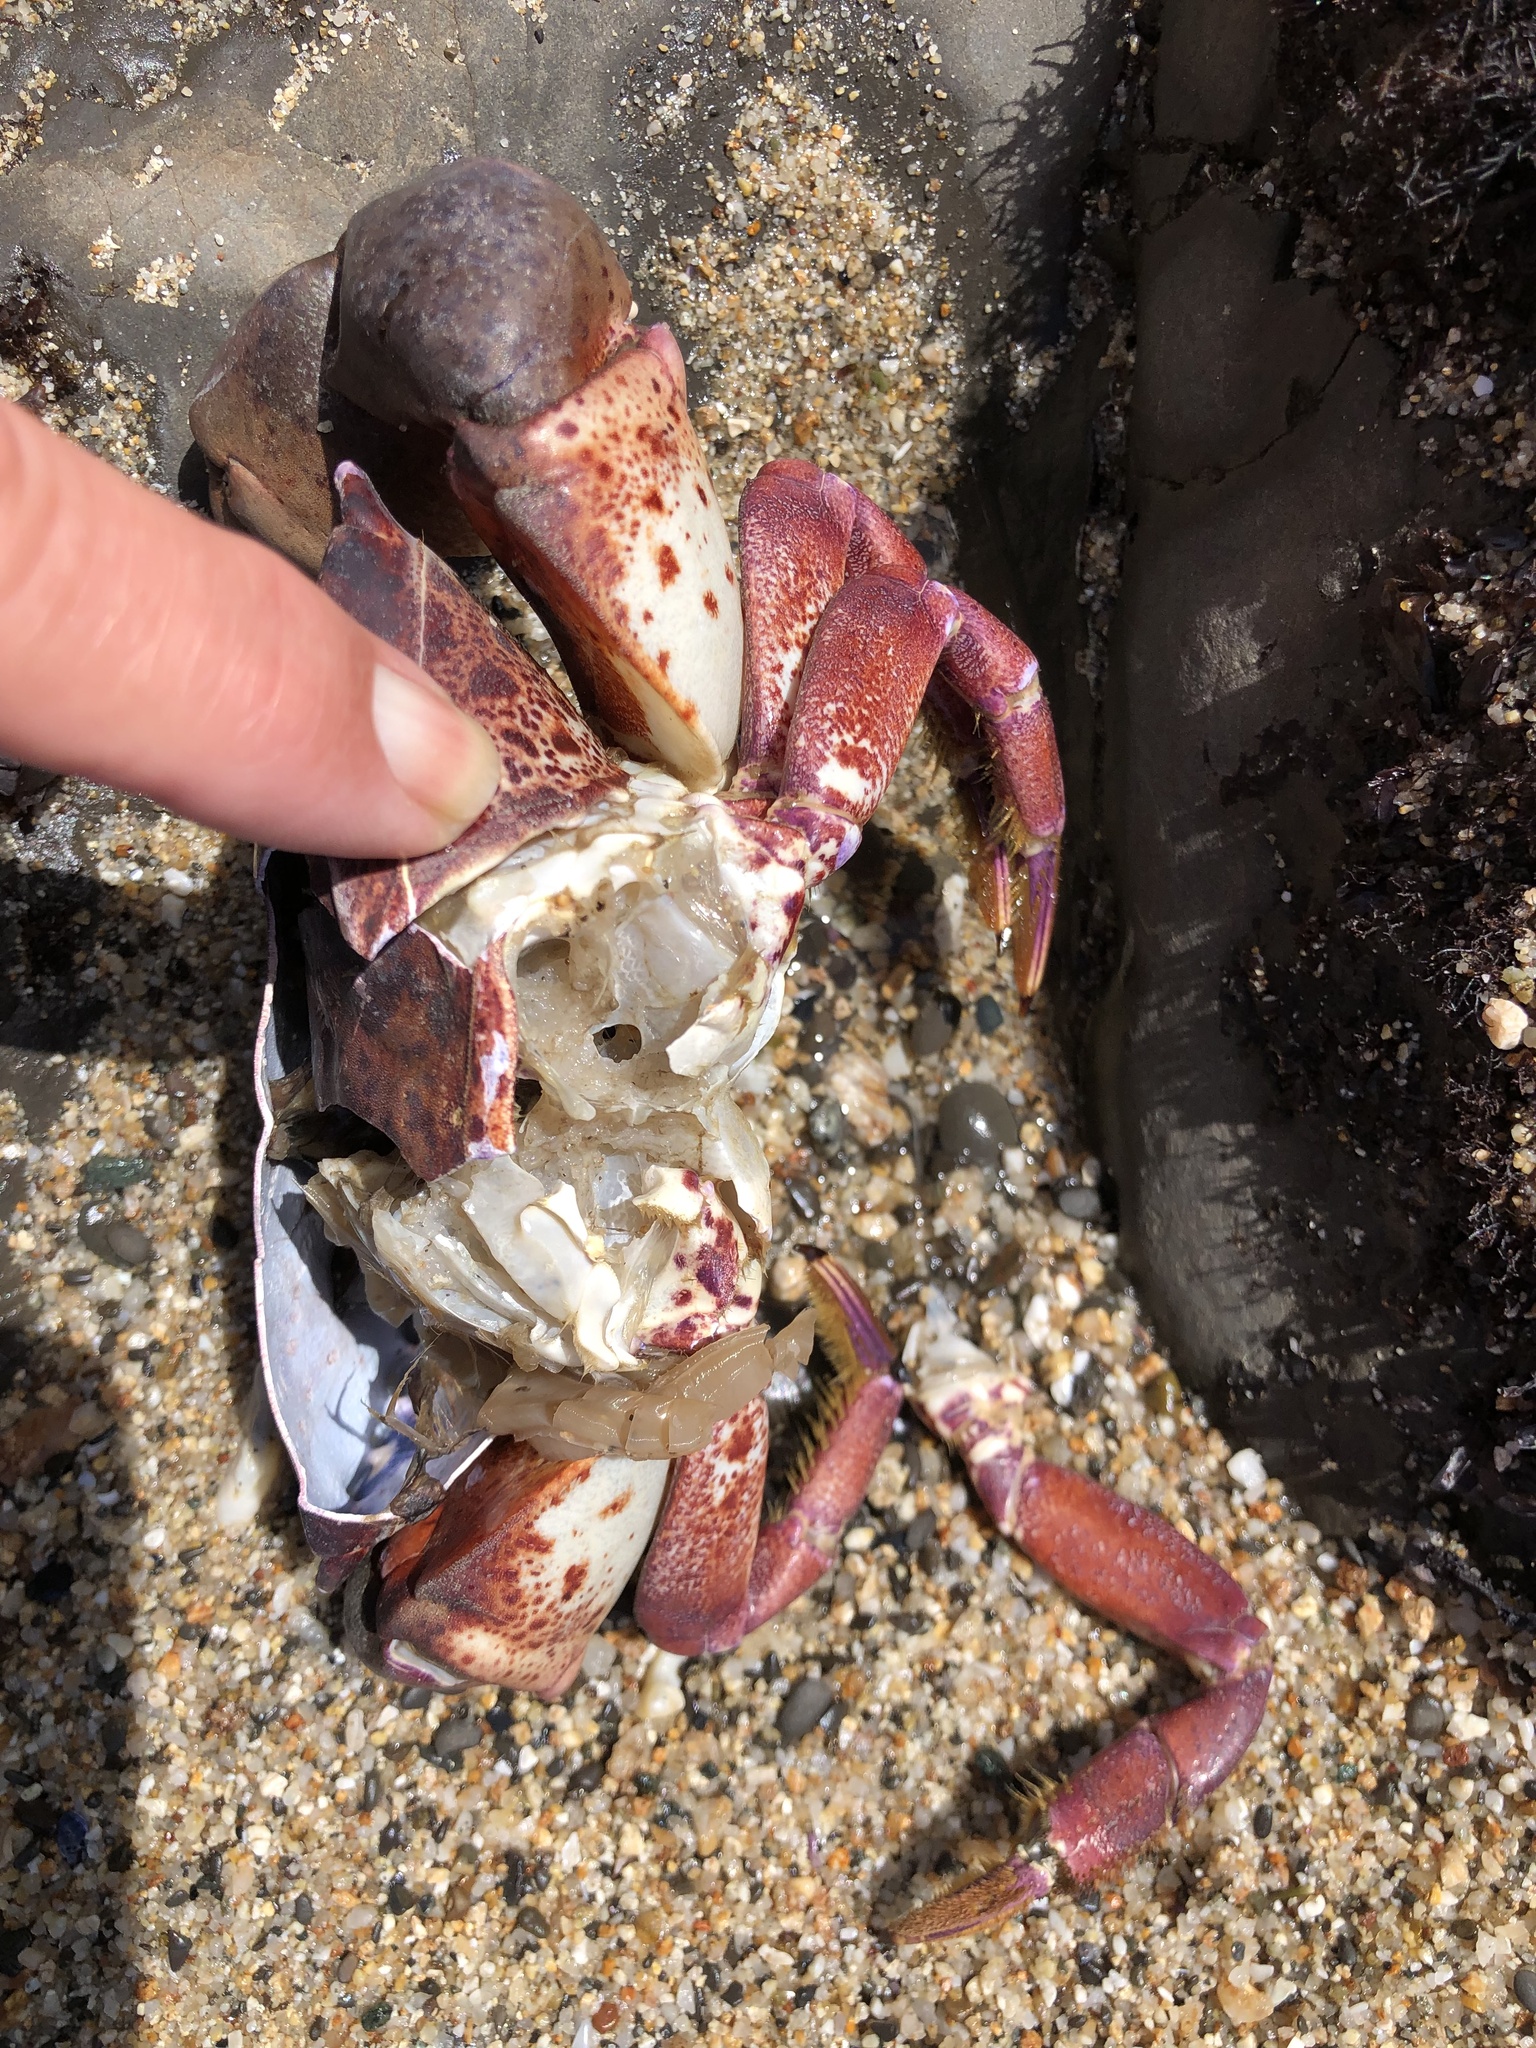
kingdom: Animalia
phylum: Arthropoda
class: Malacostraca
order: Decapoda
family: Cancridae
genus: Romaleon
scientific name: Romaleon antennarium
